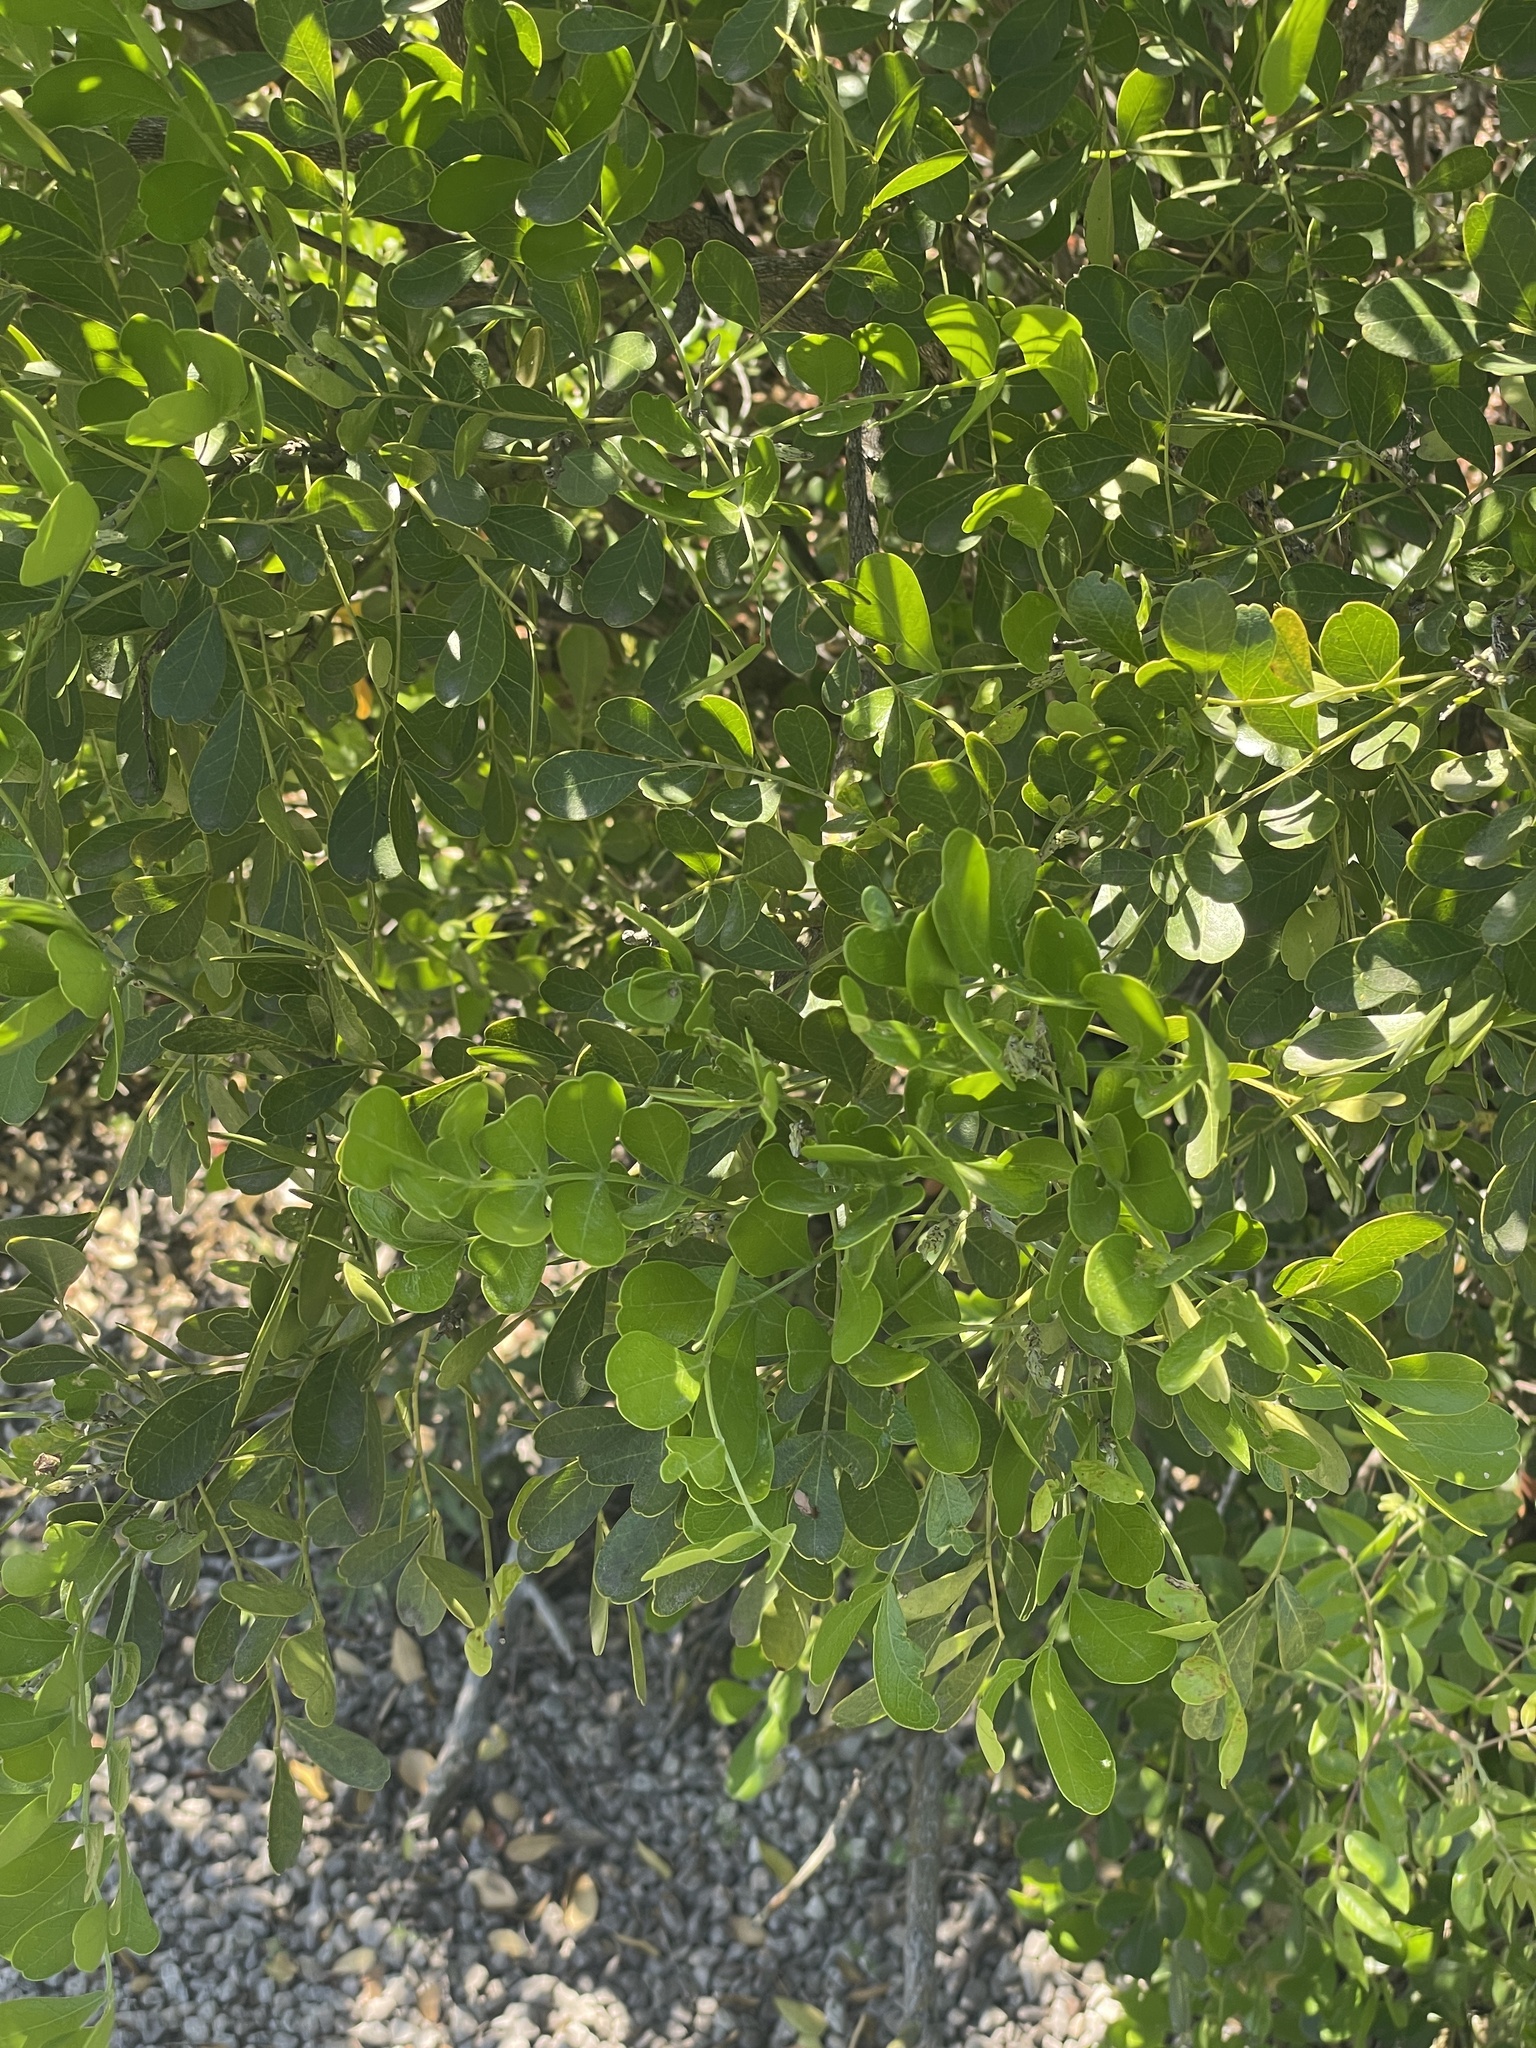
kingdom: Plantae
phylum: Tracheophyta
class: Magnoliopsida
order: Fabales
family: Fabaceae
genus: Dermatophyllum
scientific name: Dermatophyllum secundiflorum
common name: Texas-mountain-laurel
